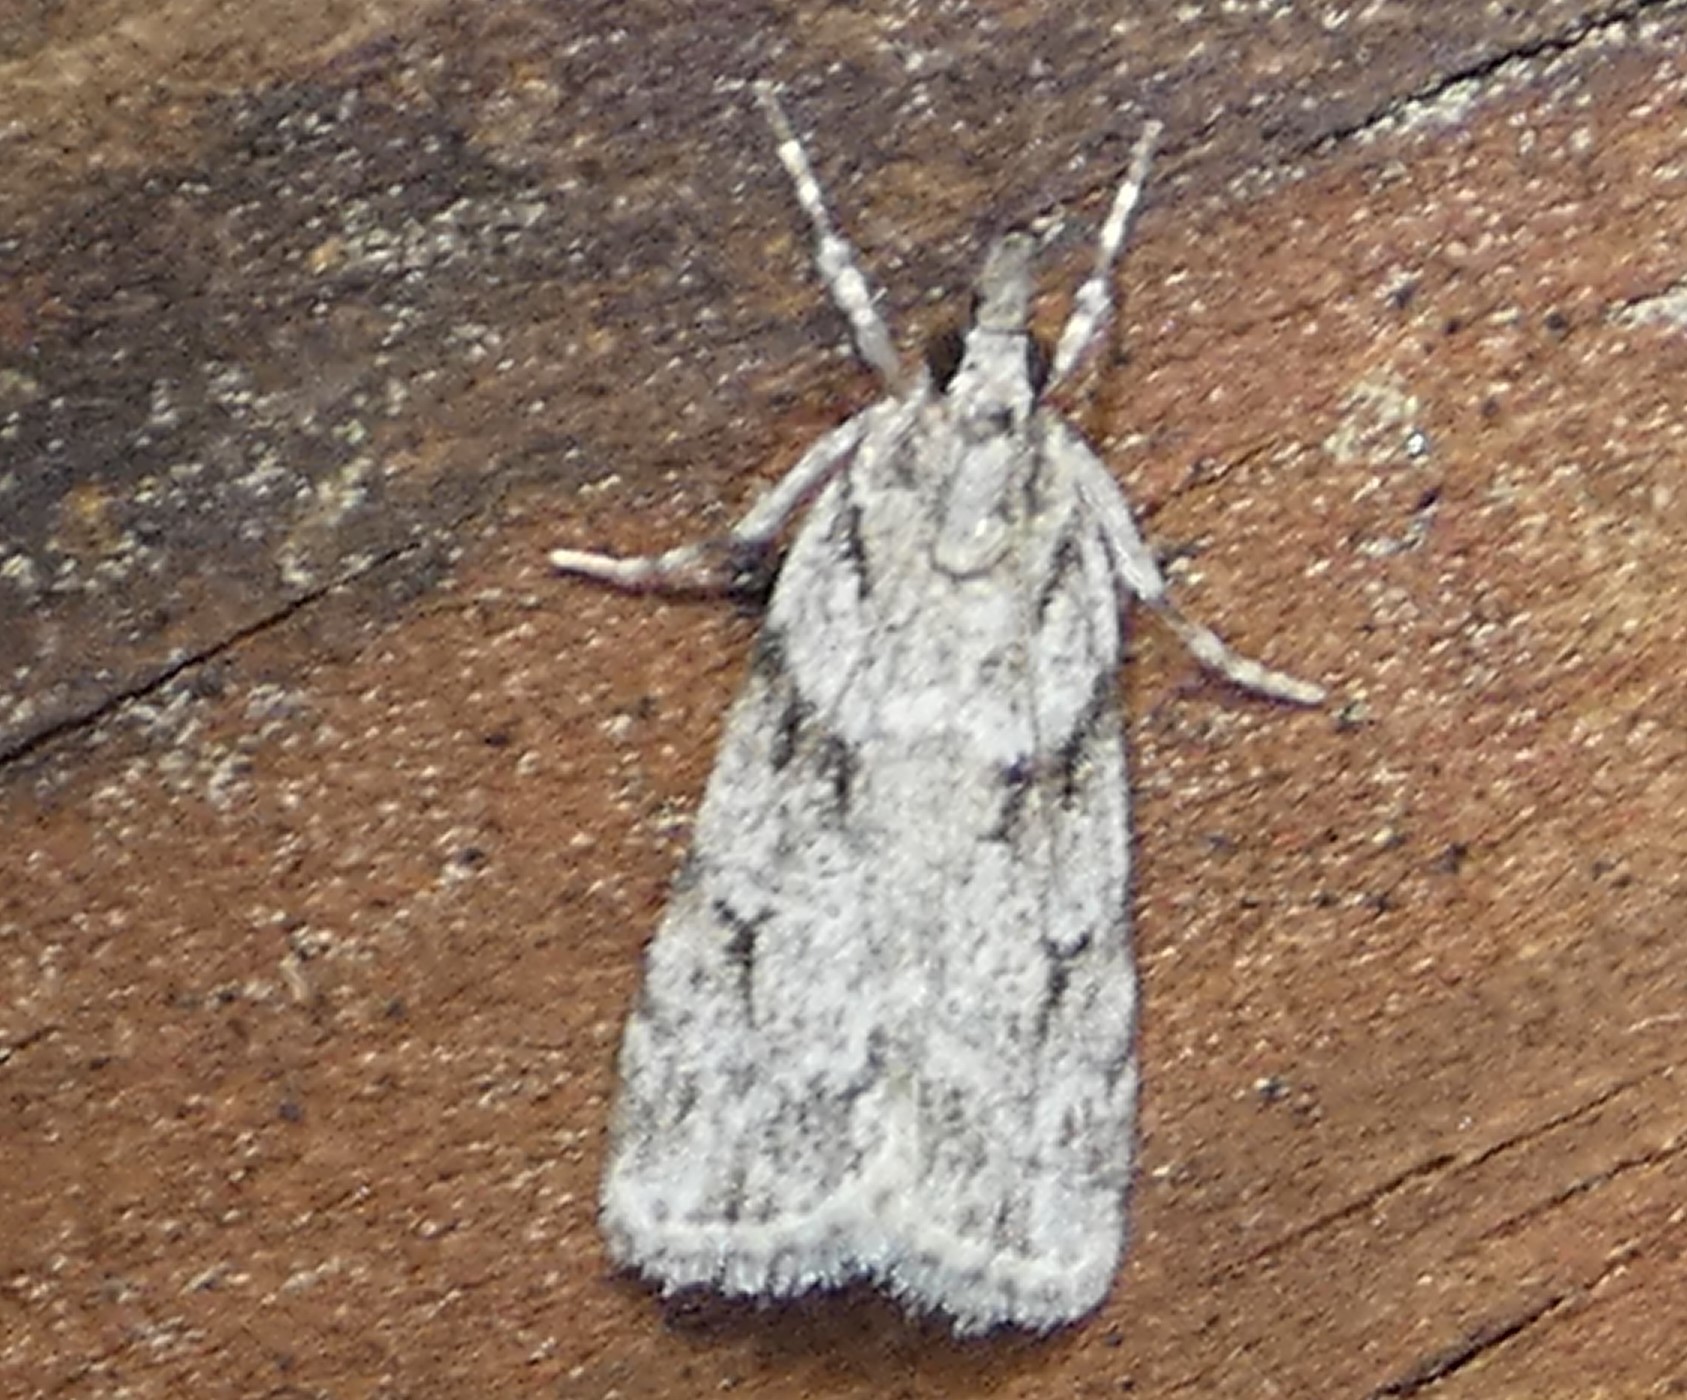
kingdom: Animalia
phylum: Arthropoda
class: Insecta
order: Lepidoptera
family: Crambidae
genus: Scoparia
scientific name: Scoparia biplagialis
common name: Double-striped scoparia moth
